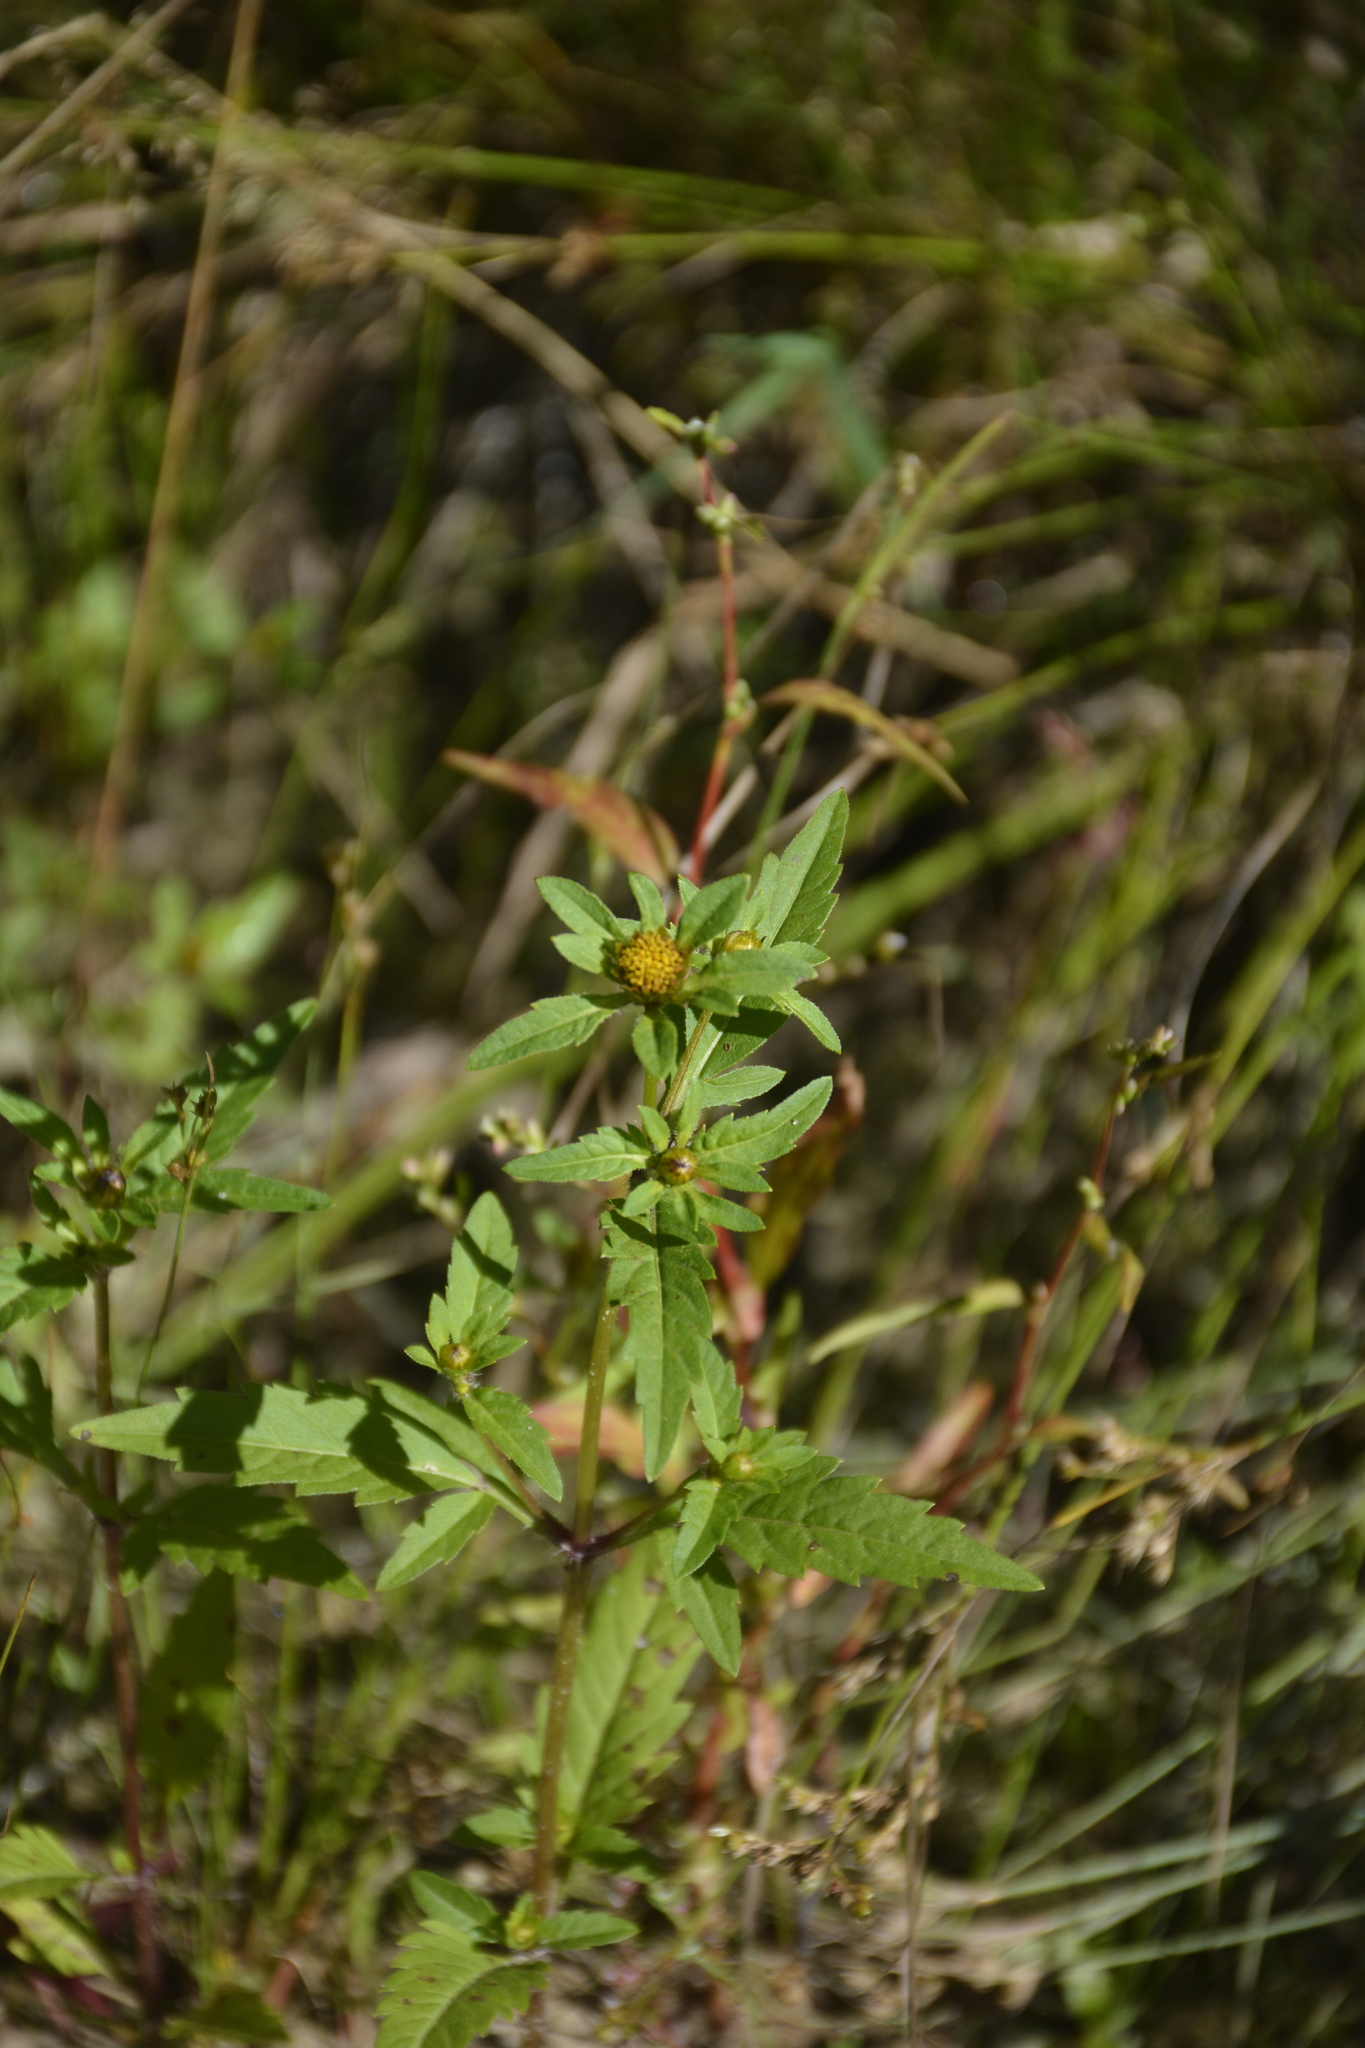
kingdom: Plantae
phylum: Tracheophyta
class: Magnoliopsida
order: Asterales
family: Asteraceae
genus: Bidens
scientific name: Bidens tripartita
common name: Trifid bur-marigold
